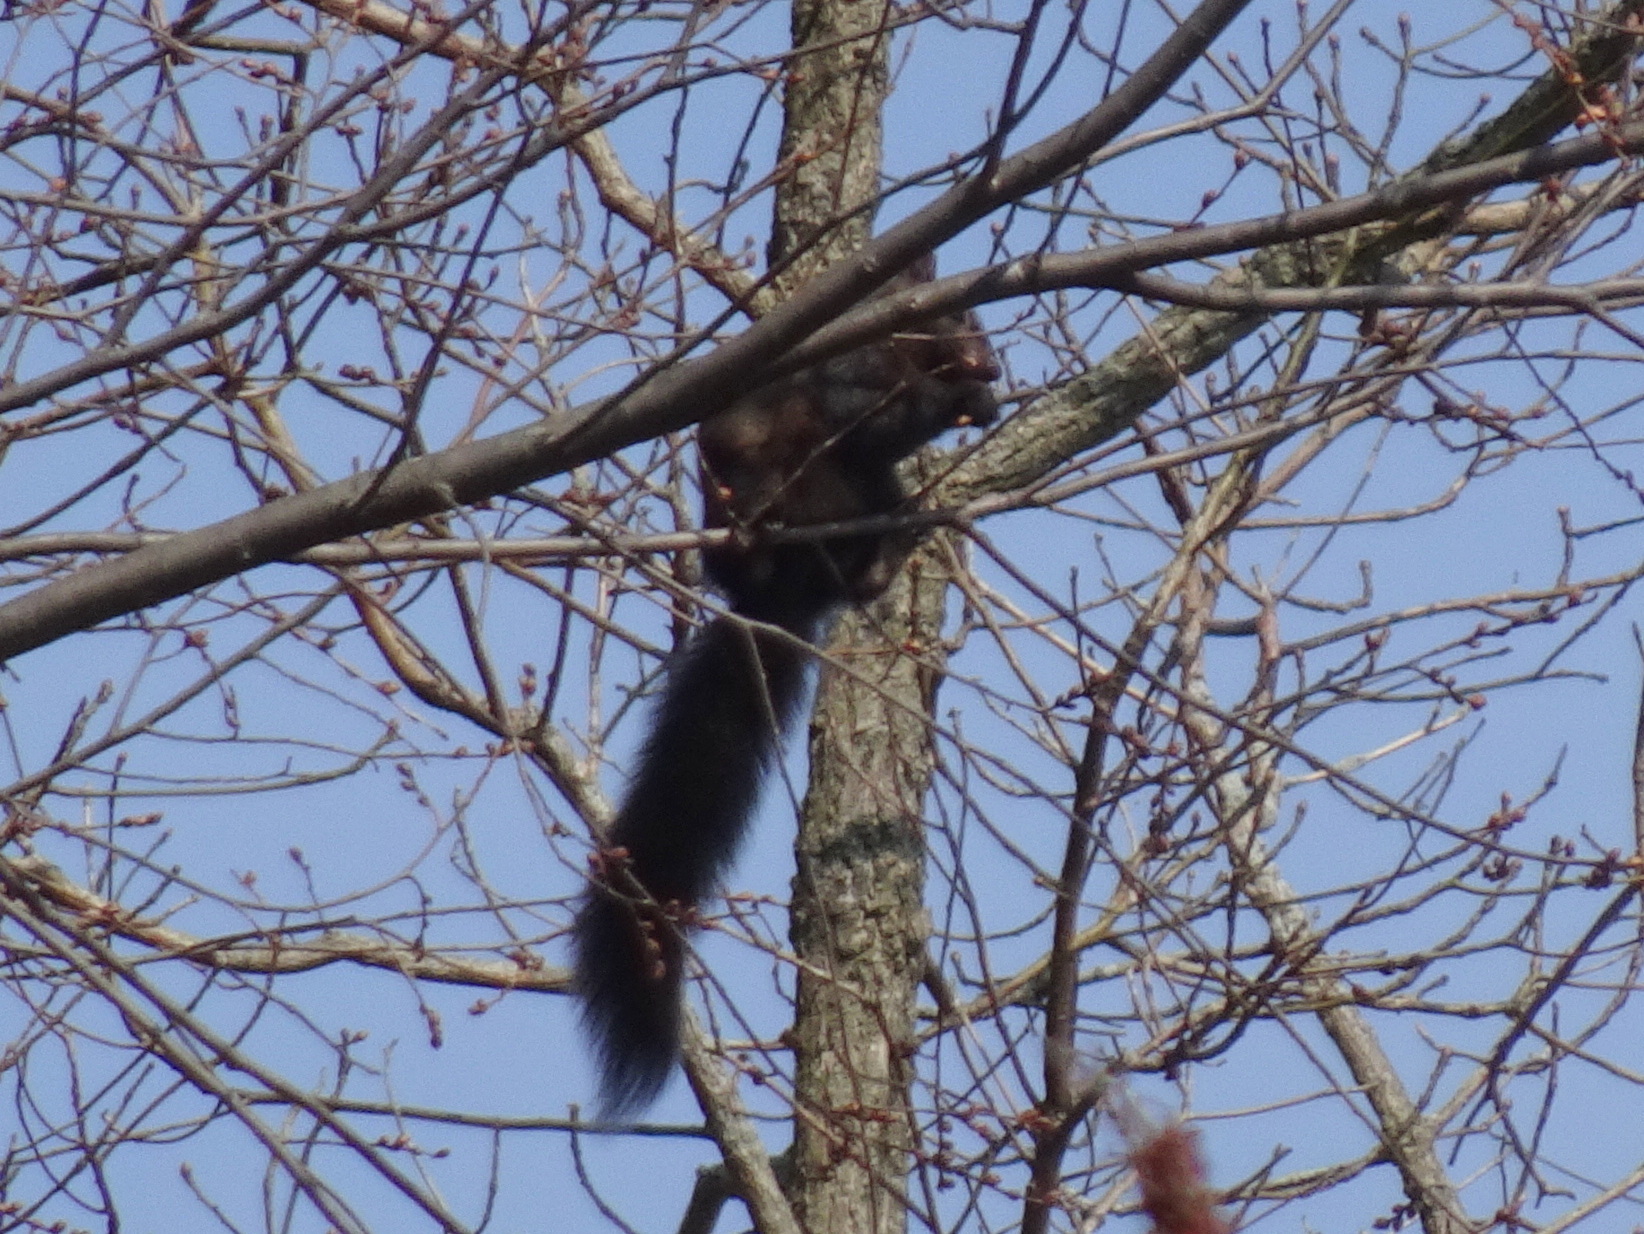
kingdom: Animalia
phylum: Chordata
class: Mammalia
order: Rodentia
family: Sciuridae
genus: Sciurus
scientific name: Sciurus carolinensis
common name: Eastern gray squirrel
